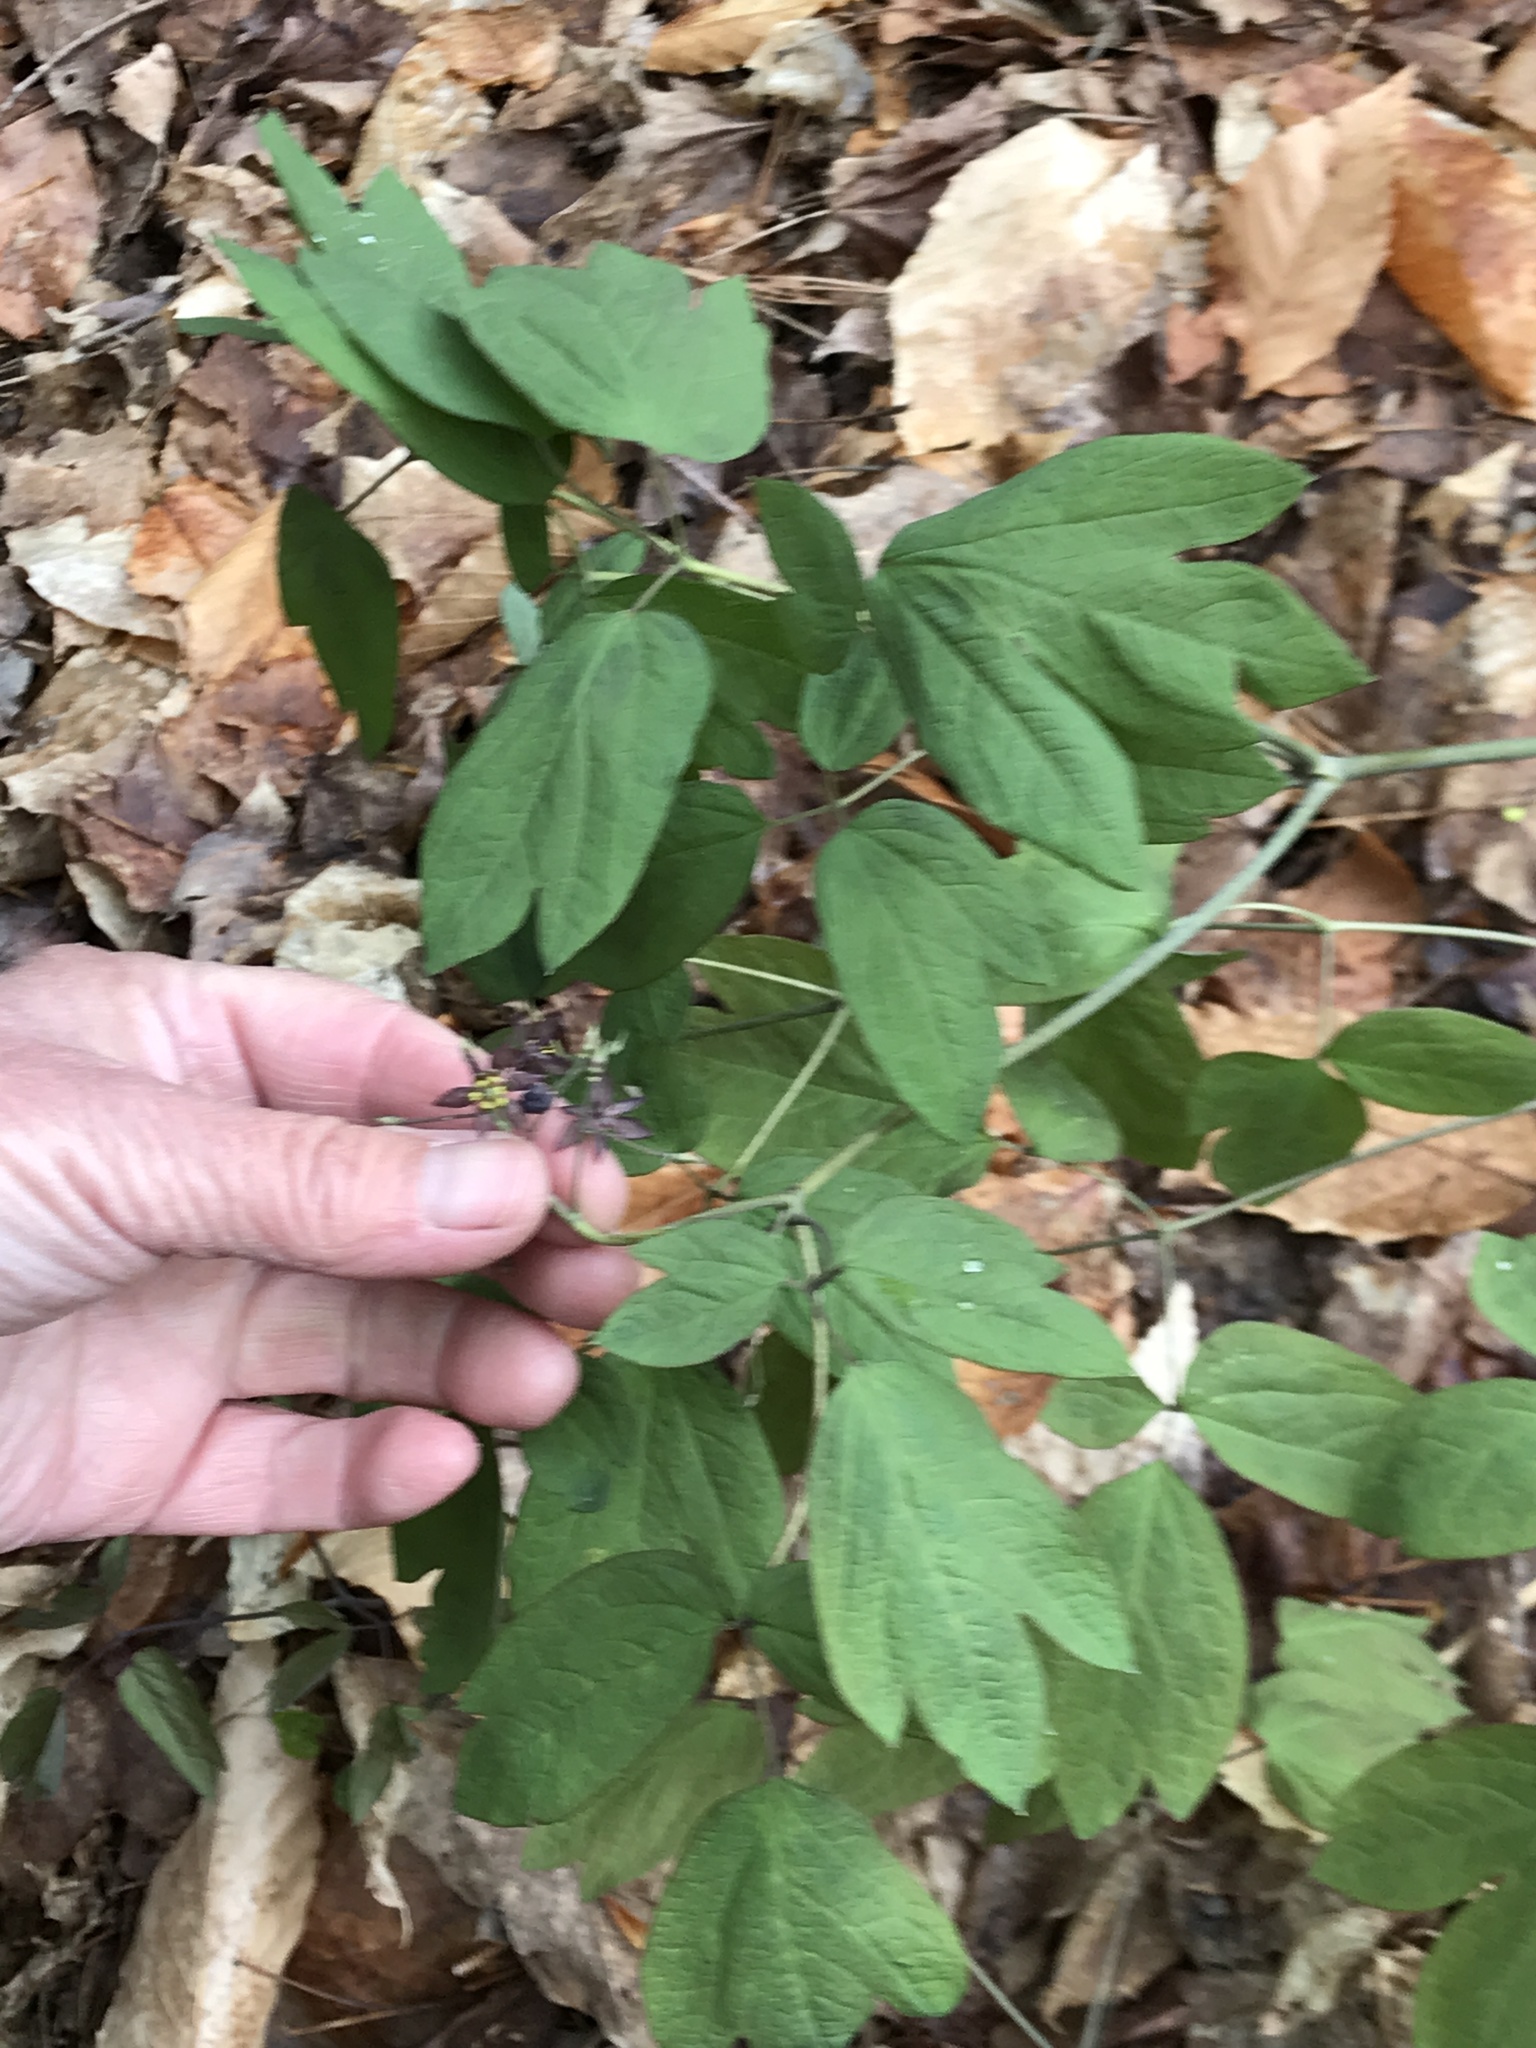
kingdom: Plantae
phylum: Tracheophyta
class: Magnoliopsida
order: Ranunculales
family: Berberidaceae
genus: Caulophyllum
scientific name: Caulophyllum giganteum
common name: Blue cohosh
